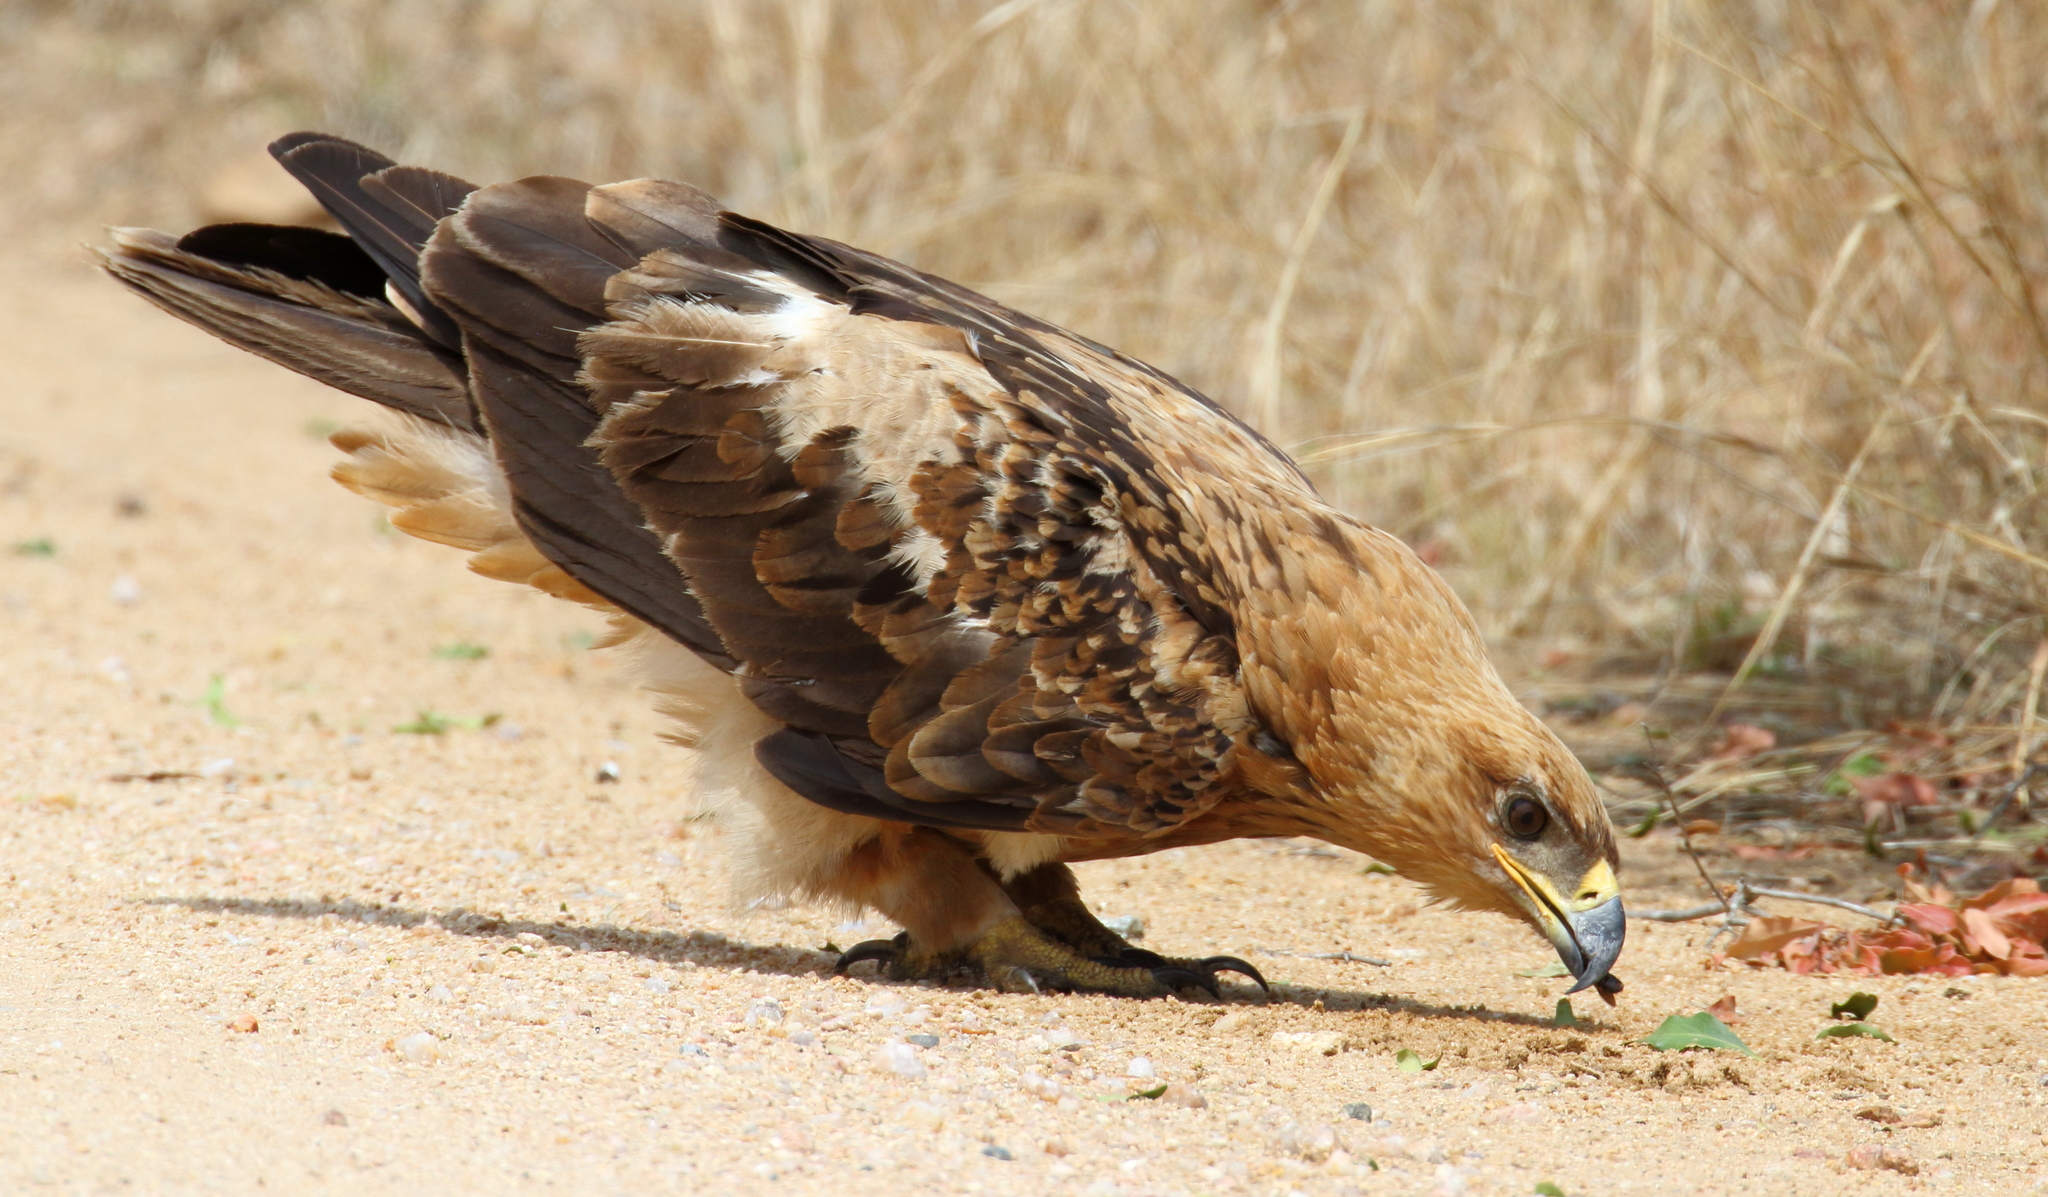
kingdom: Animalia
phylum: Chordata
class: Aves
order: Accipitriformes
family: Accipitridae
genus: Aquila
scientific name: Aquila rapax
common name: Tawny eagle
